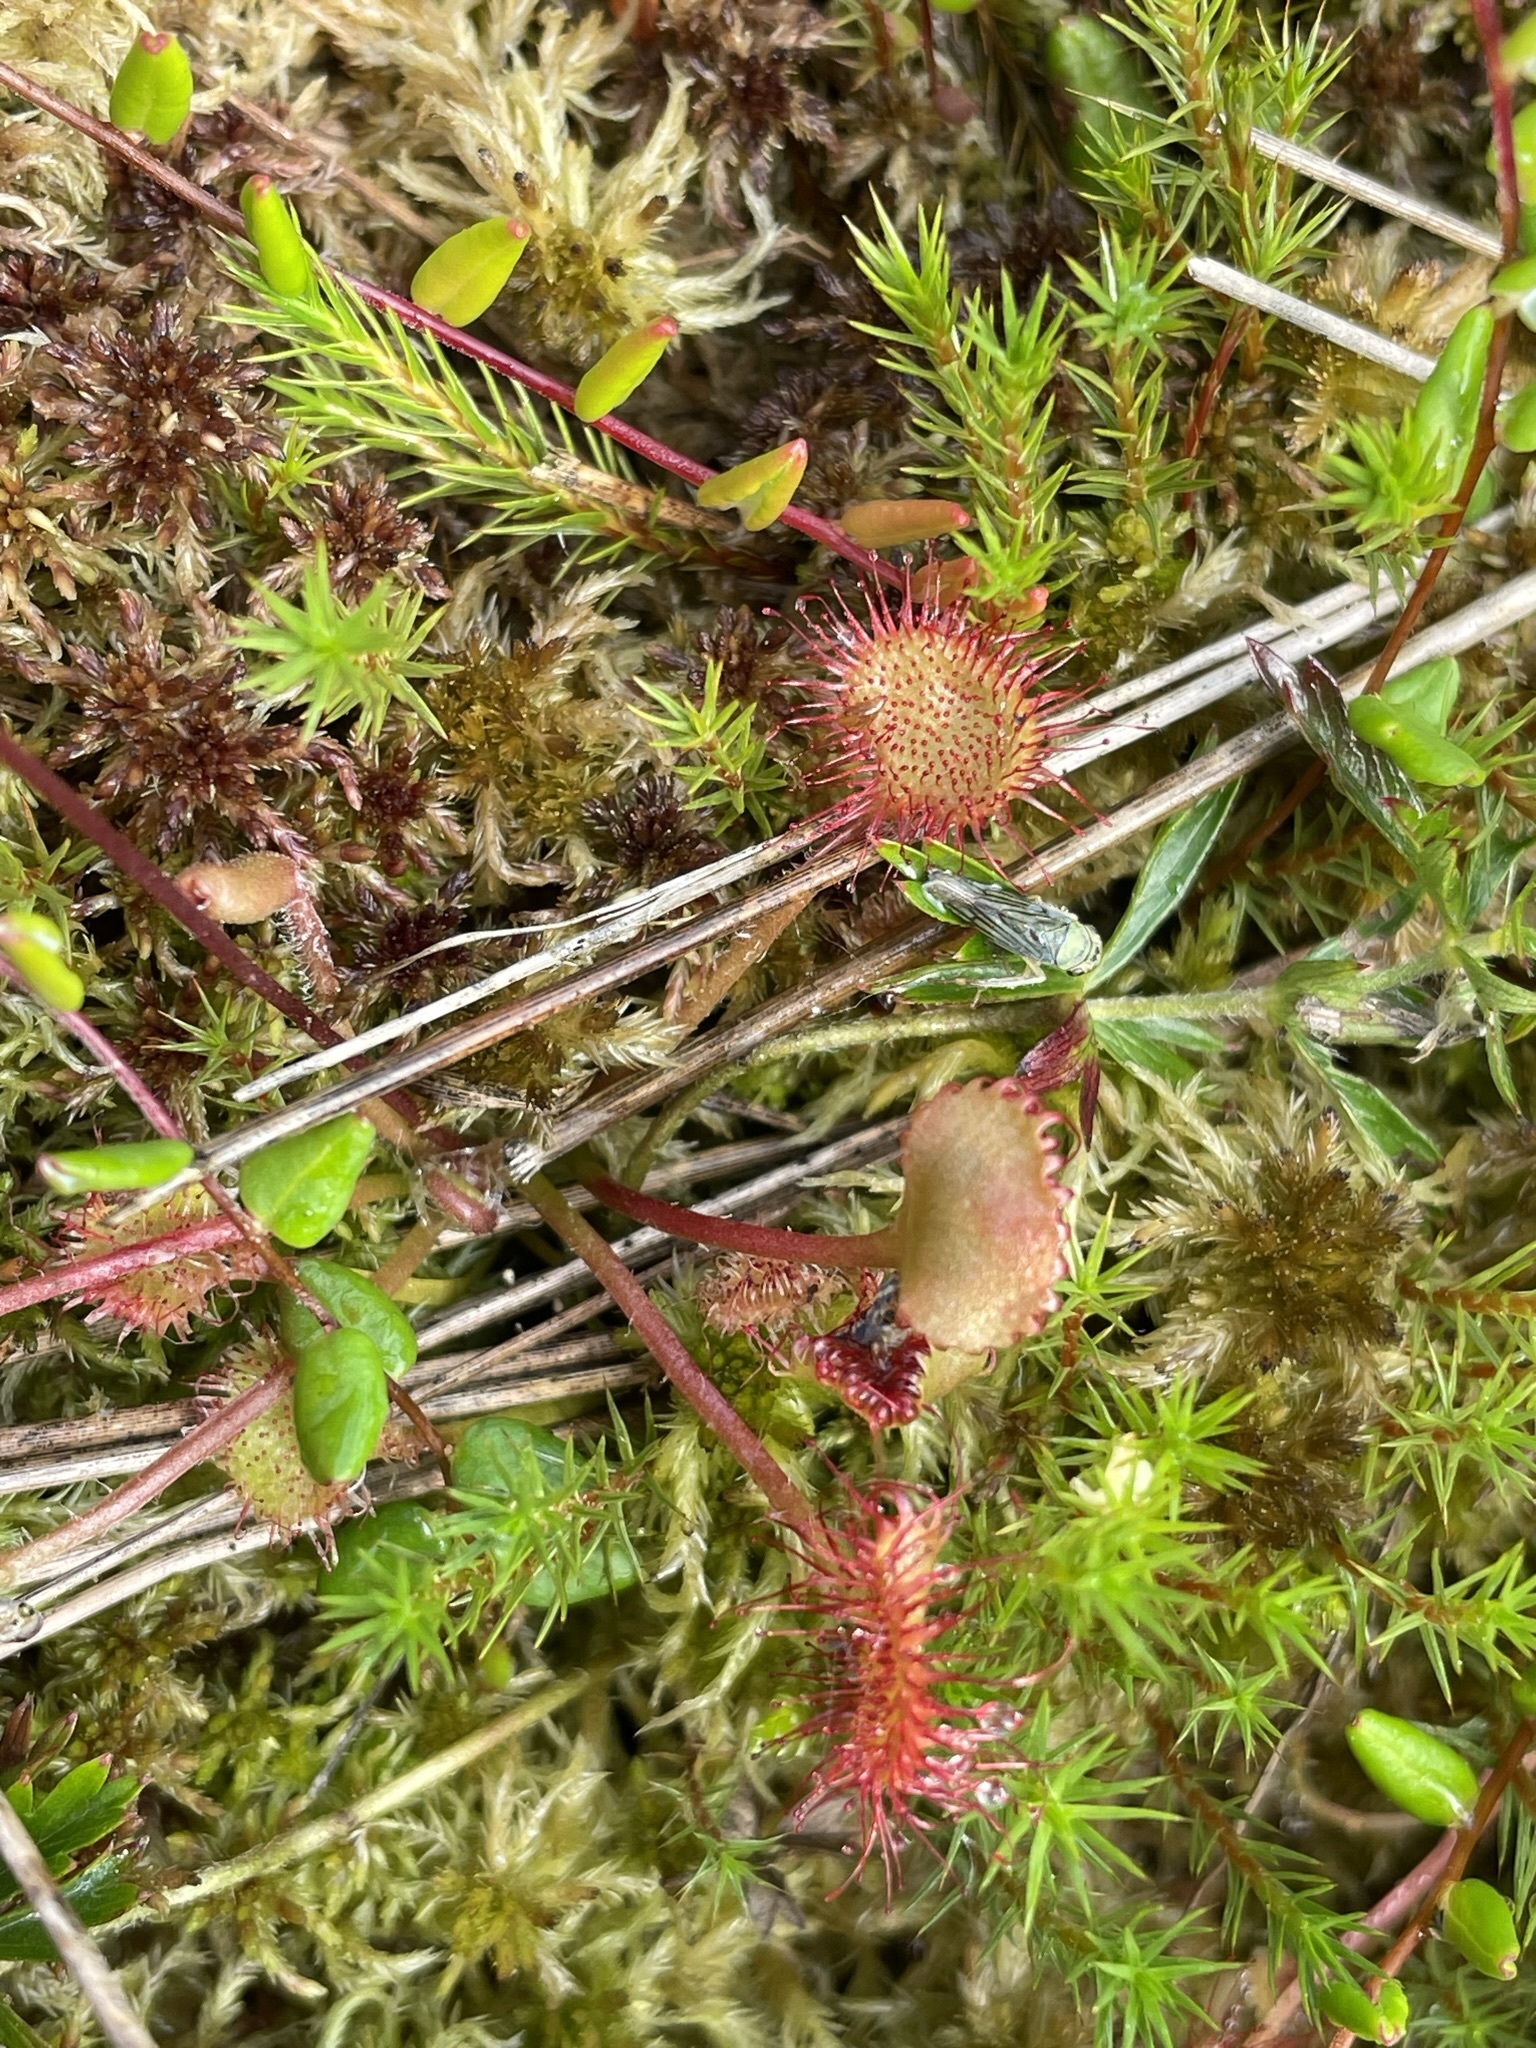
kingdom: Plantae
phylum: Tracheophyta
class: Magnoliopsida
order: Caryophyllales
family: Droseraceae
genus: Drosera
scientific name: Drosera rotundifolia
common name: Round-leaved sundew
